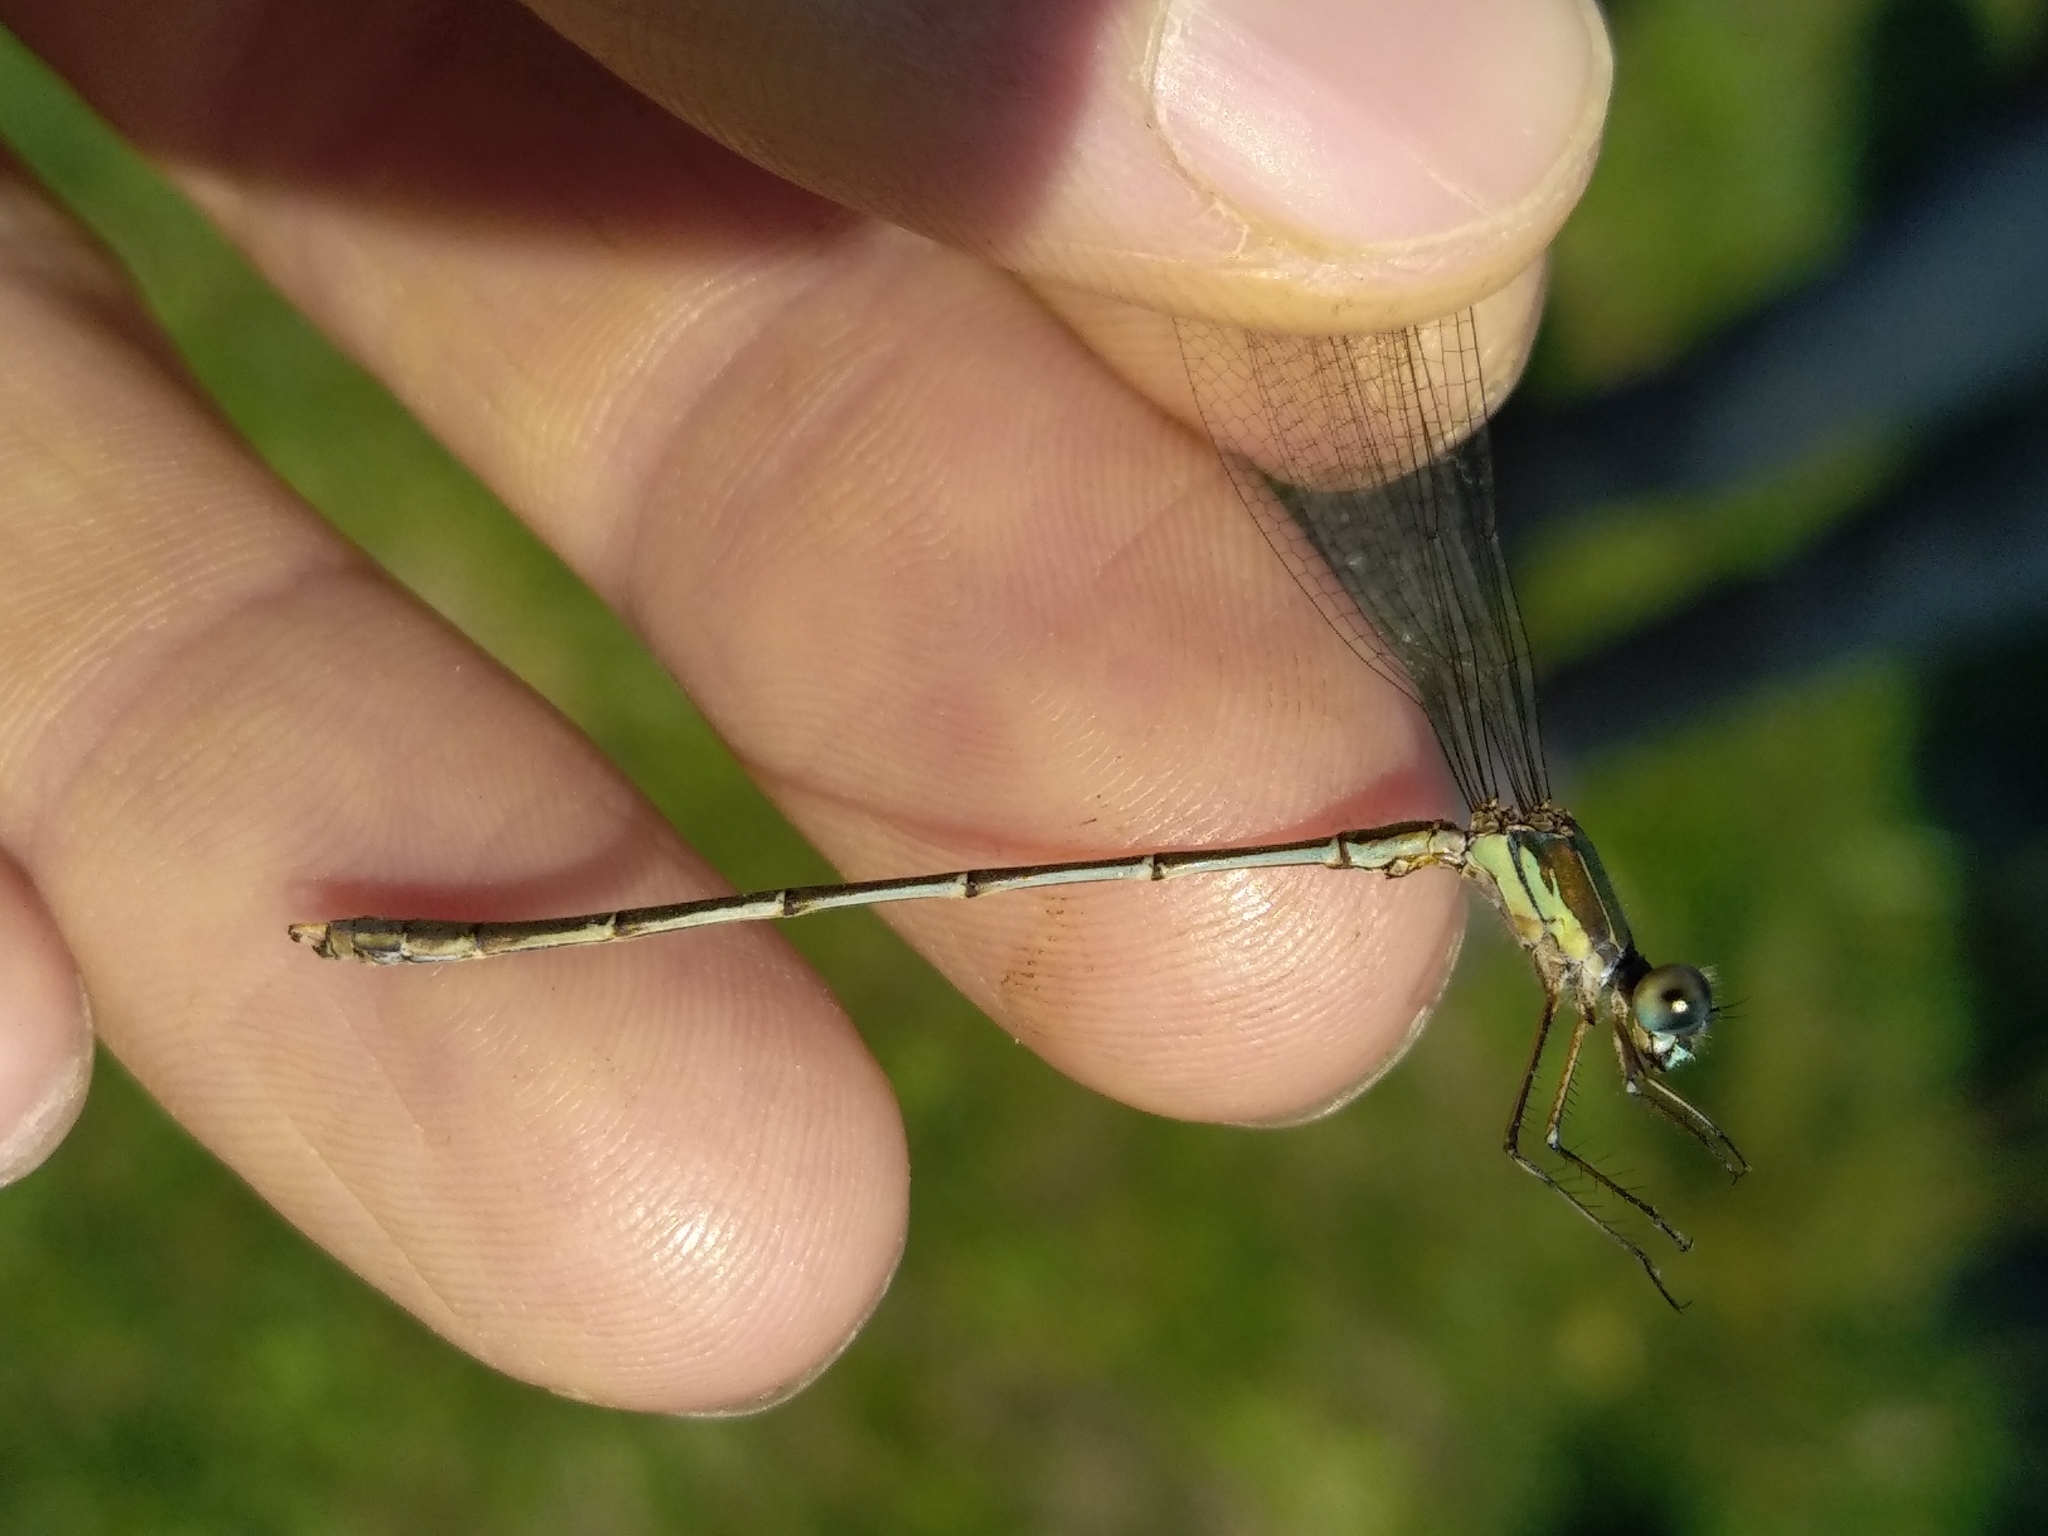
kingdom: Animalia
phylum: Arthropoda
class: Insecta
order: Odonata
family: Lestidae
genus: Chalcolestes
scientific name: Chalcolestes viridis
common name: Green emerald damselfly
